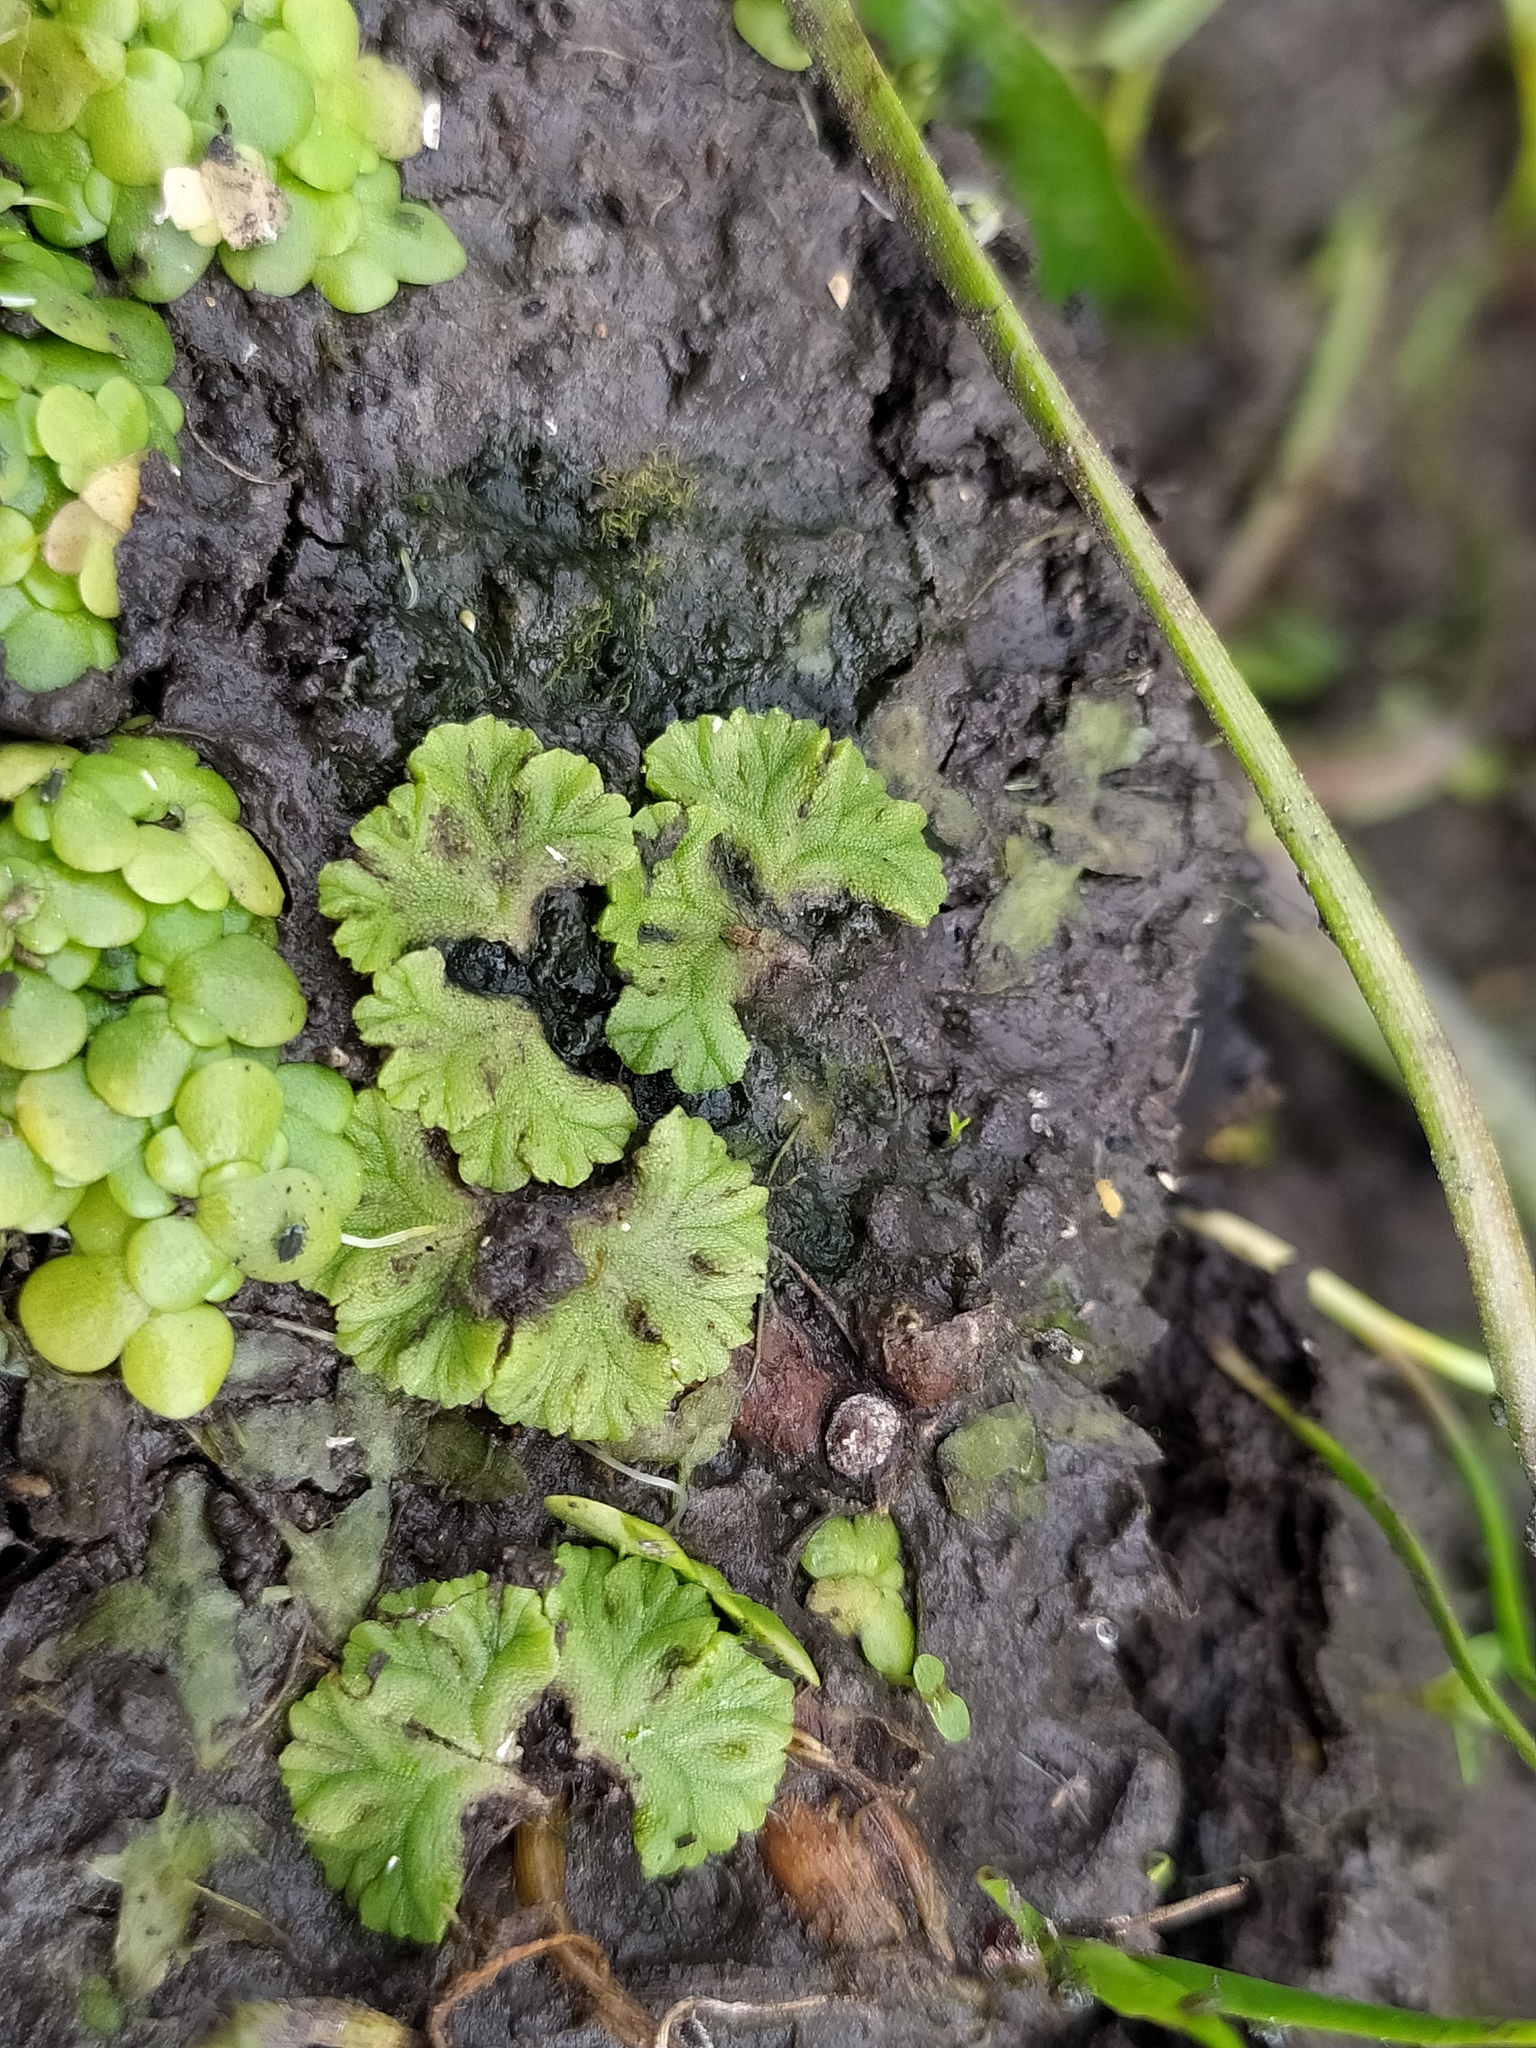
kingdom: Plantae
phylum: Marchantiophyta
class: Marchantiopsida
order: Marchantiales
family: Ricciaceae
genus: Ricciocarpos
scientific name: Ricciocarpos natans
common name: Purple-fringed liverwort
